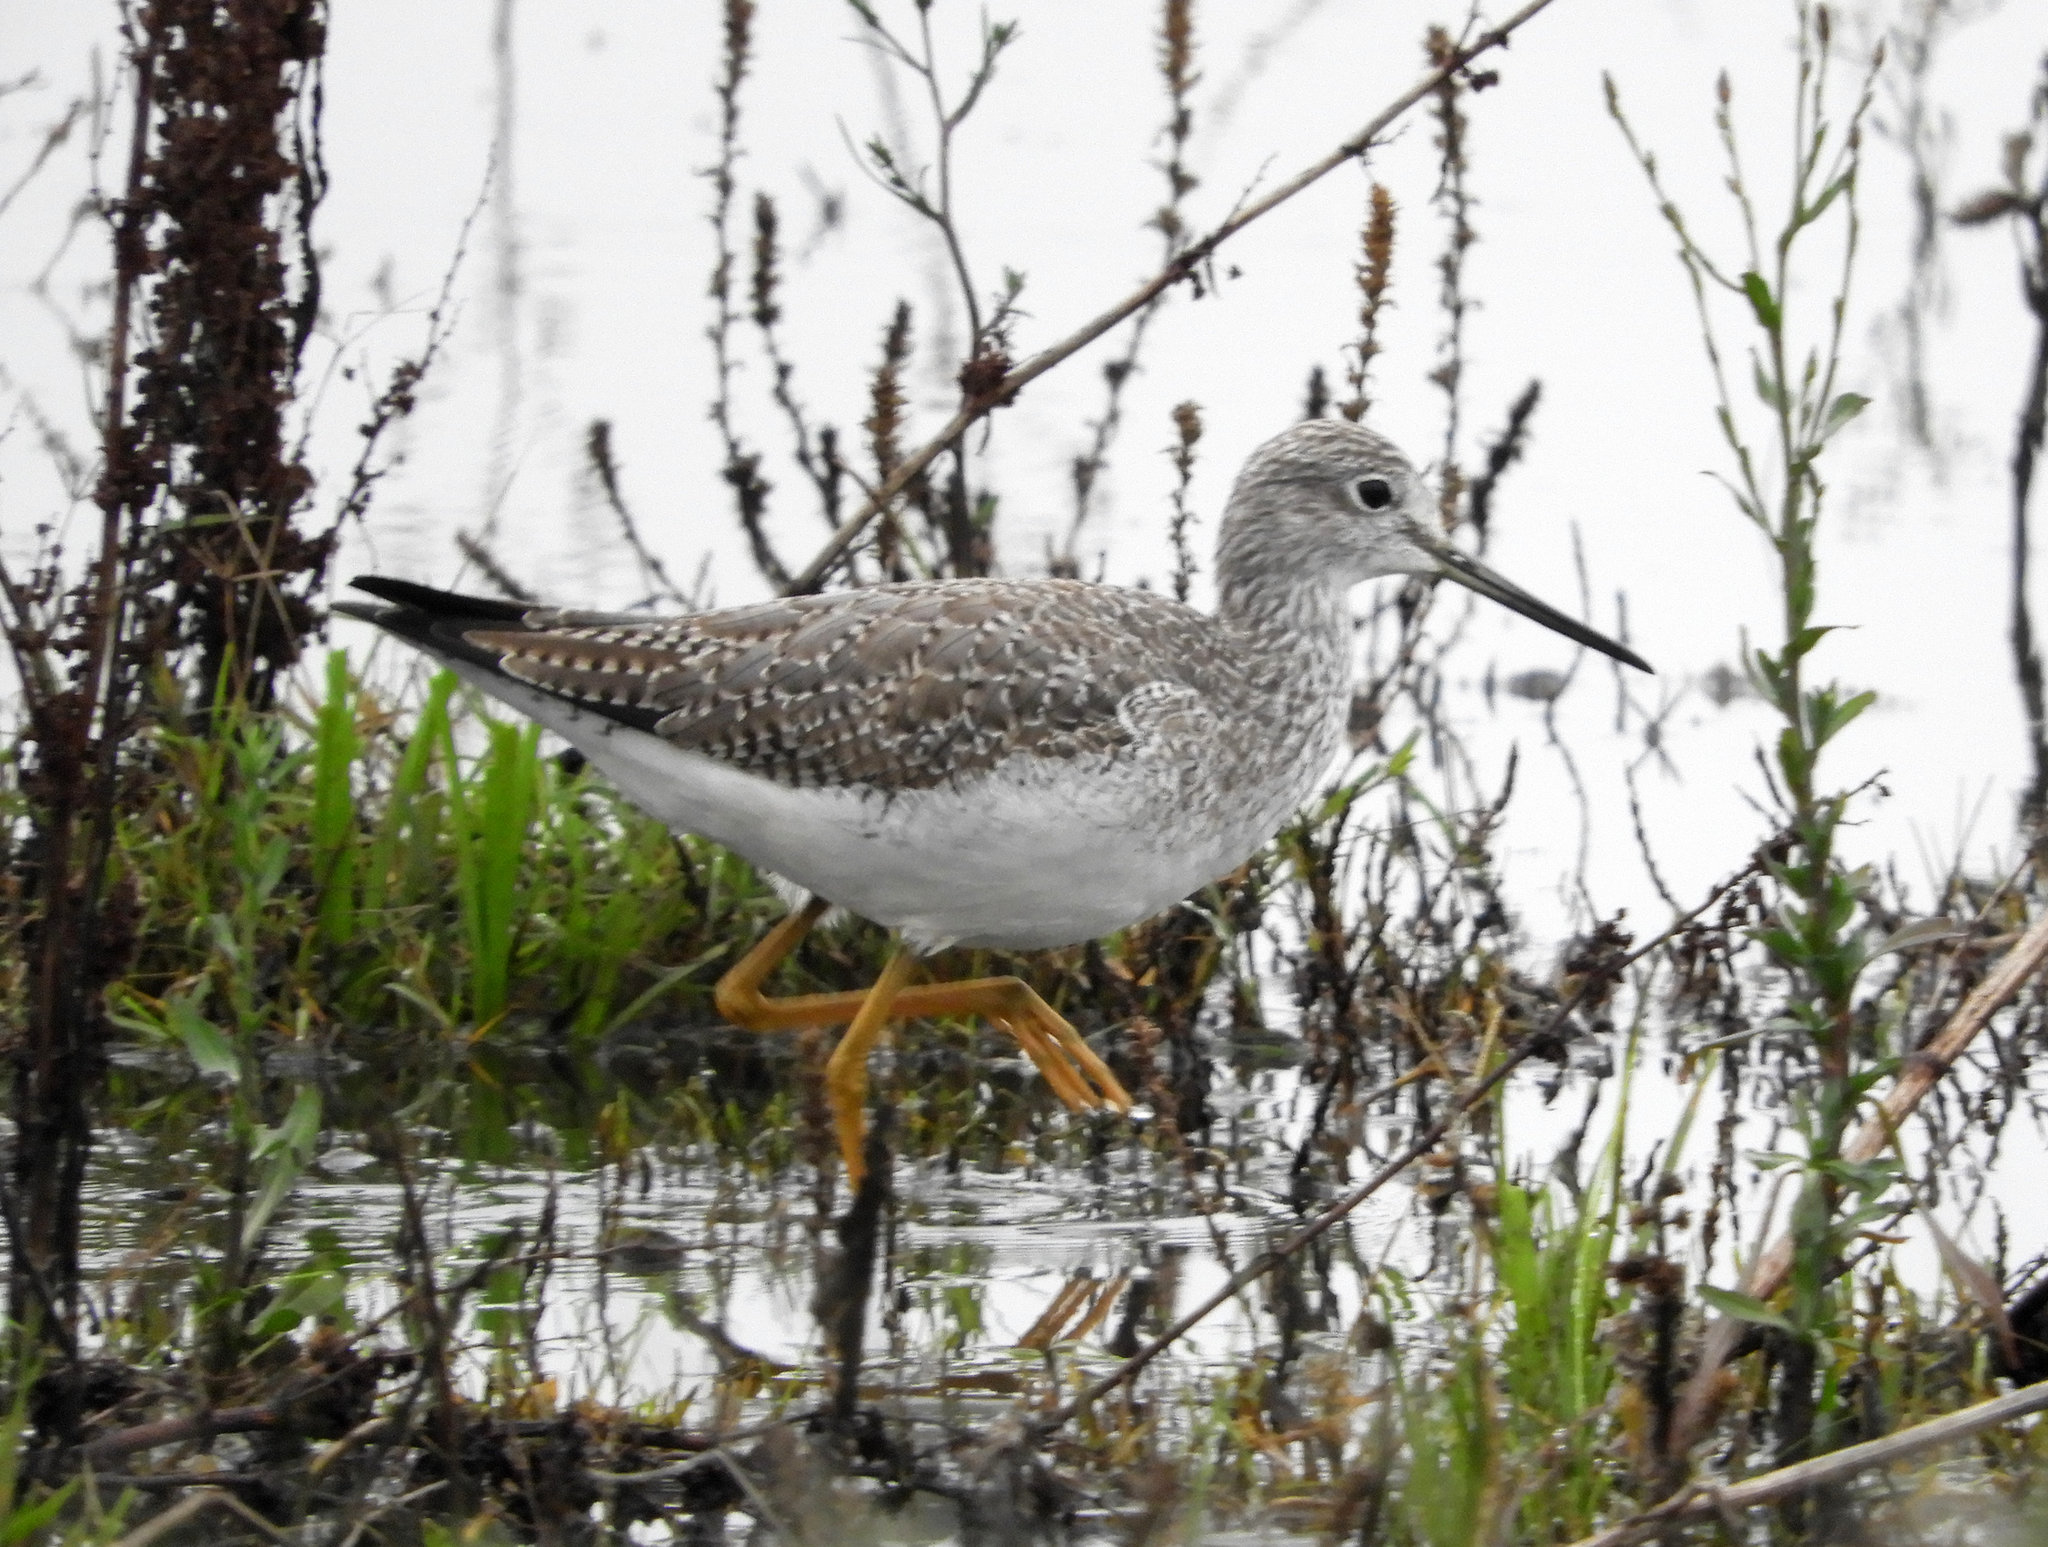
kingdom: Animalia
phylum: Chordata
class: Aves
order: Charadriiformes
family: Scolopacidae
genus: Tringa
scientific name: Tringa melanoleuca
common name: Greater yellowlegs
